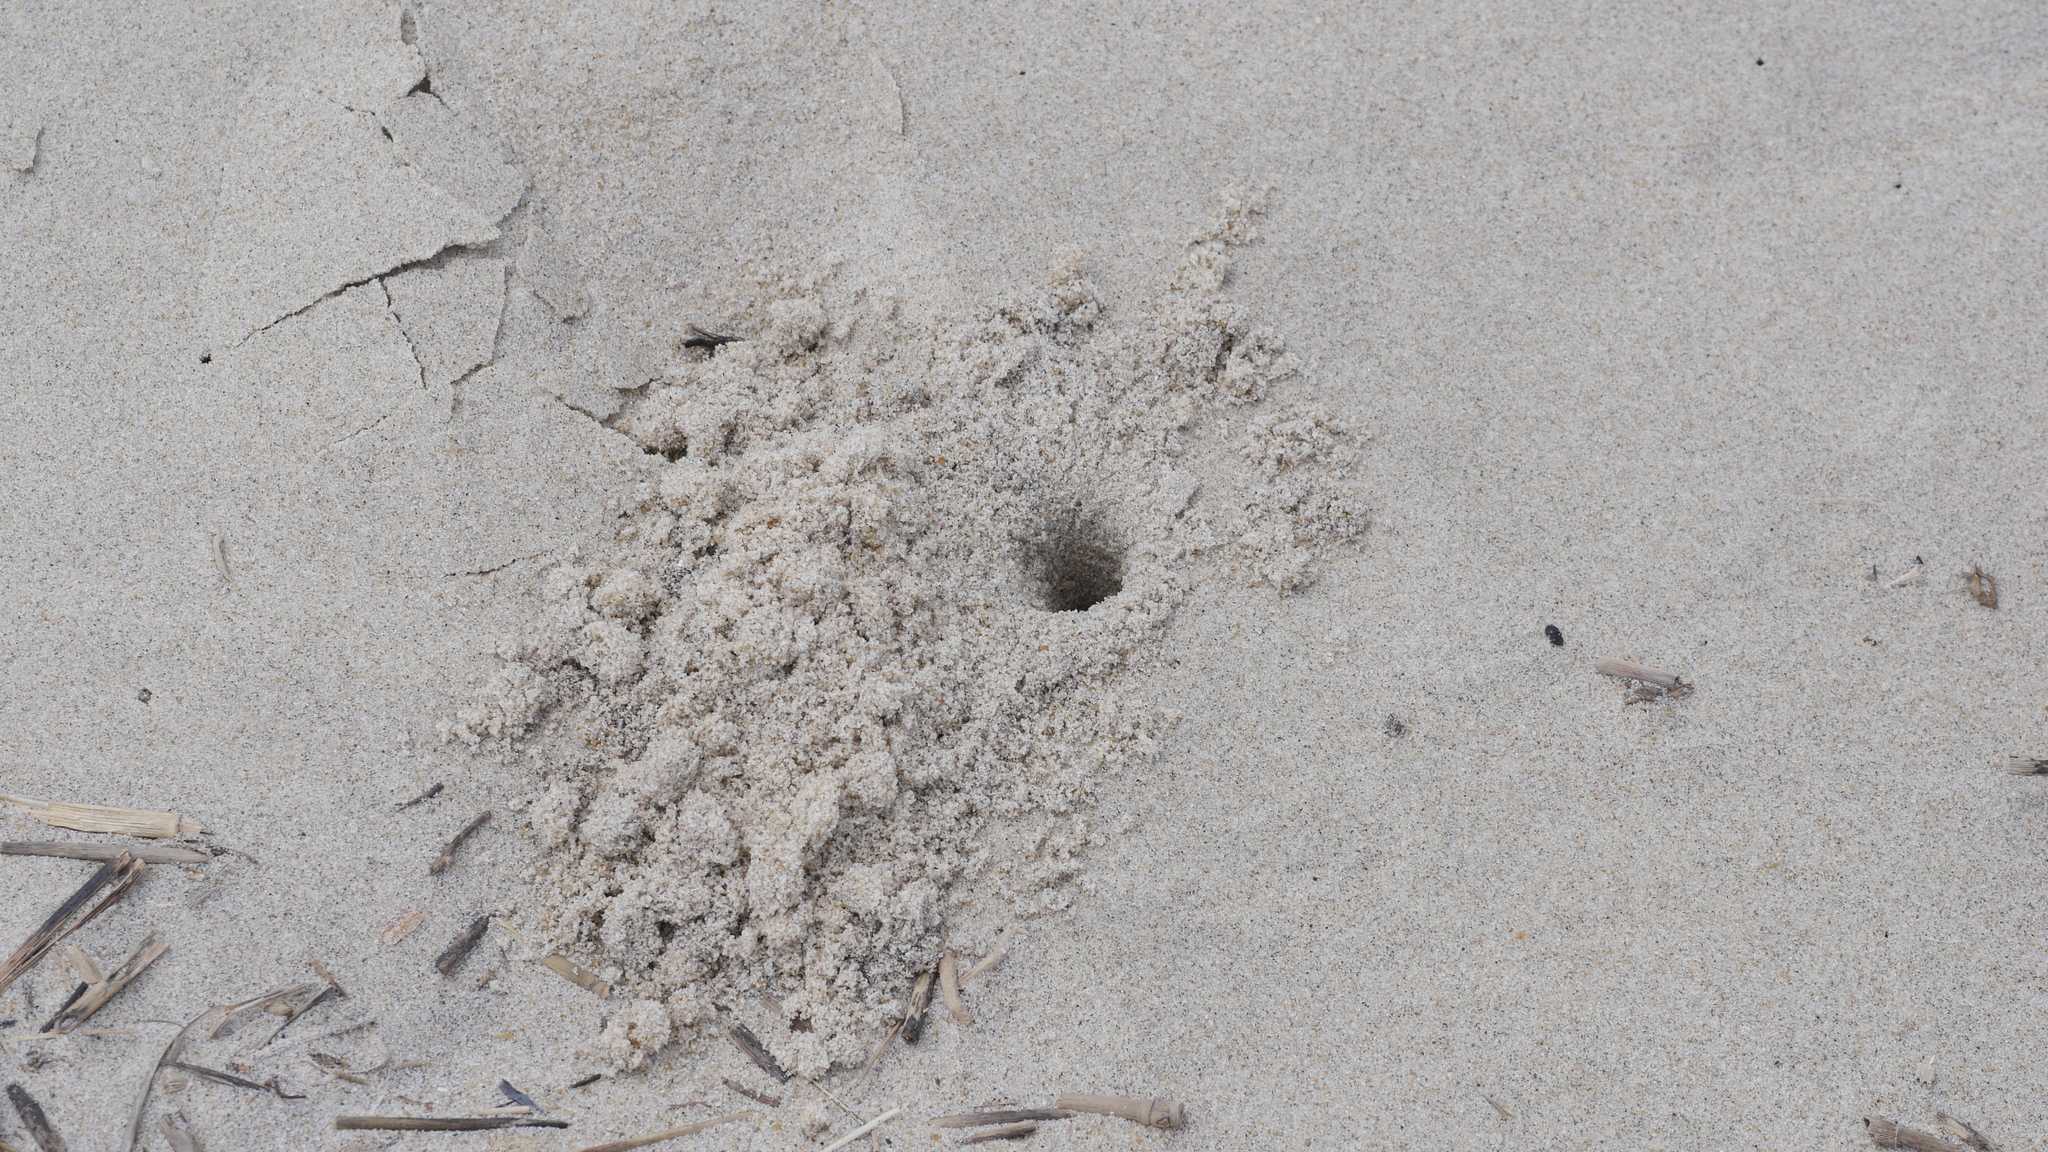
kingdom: Animalia
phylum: Arthropoda
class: Malacostraca
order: Decapoda
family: Ocypodidae
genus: Ocypode
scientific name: Ocypode quadrata
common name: Ghost crab
